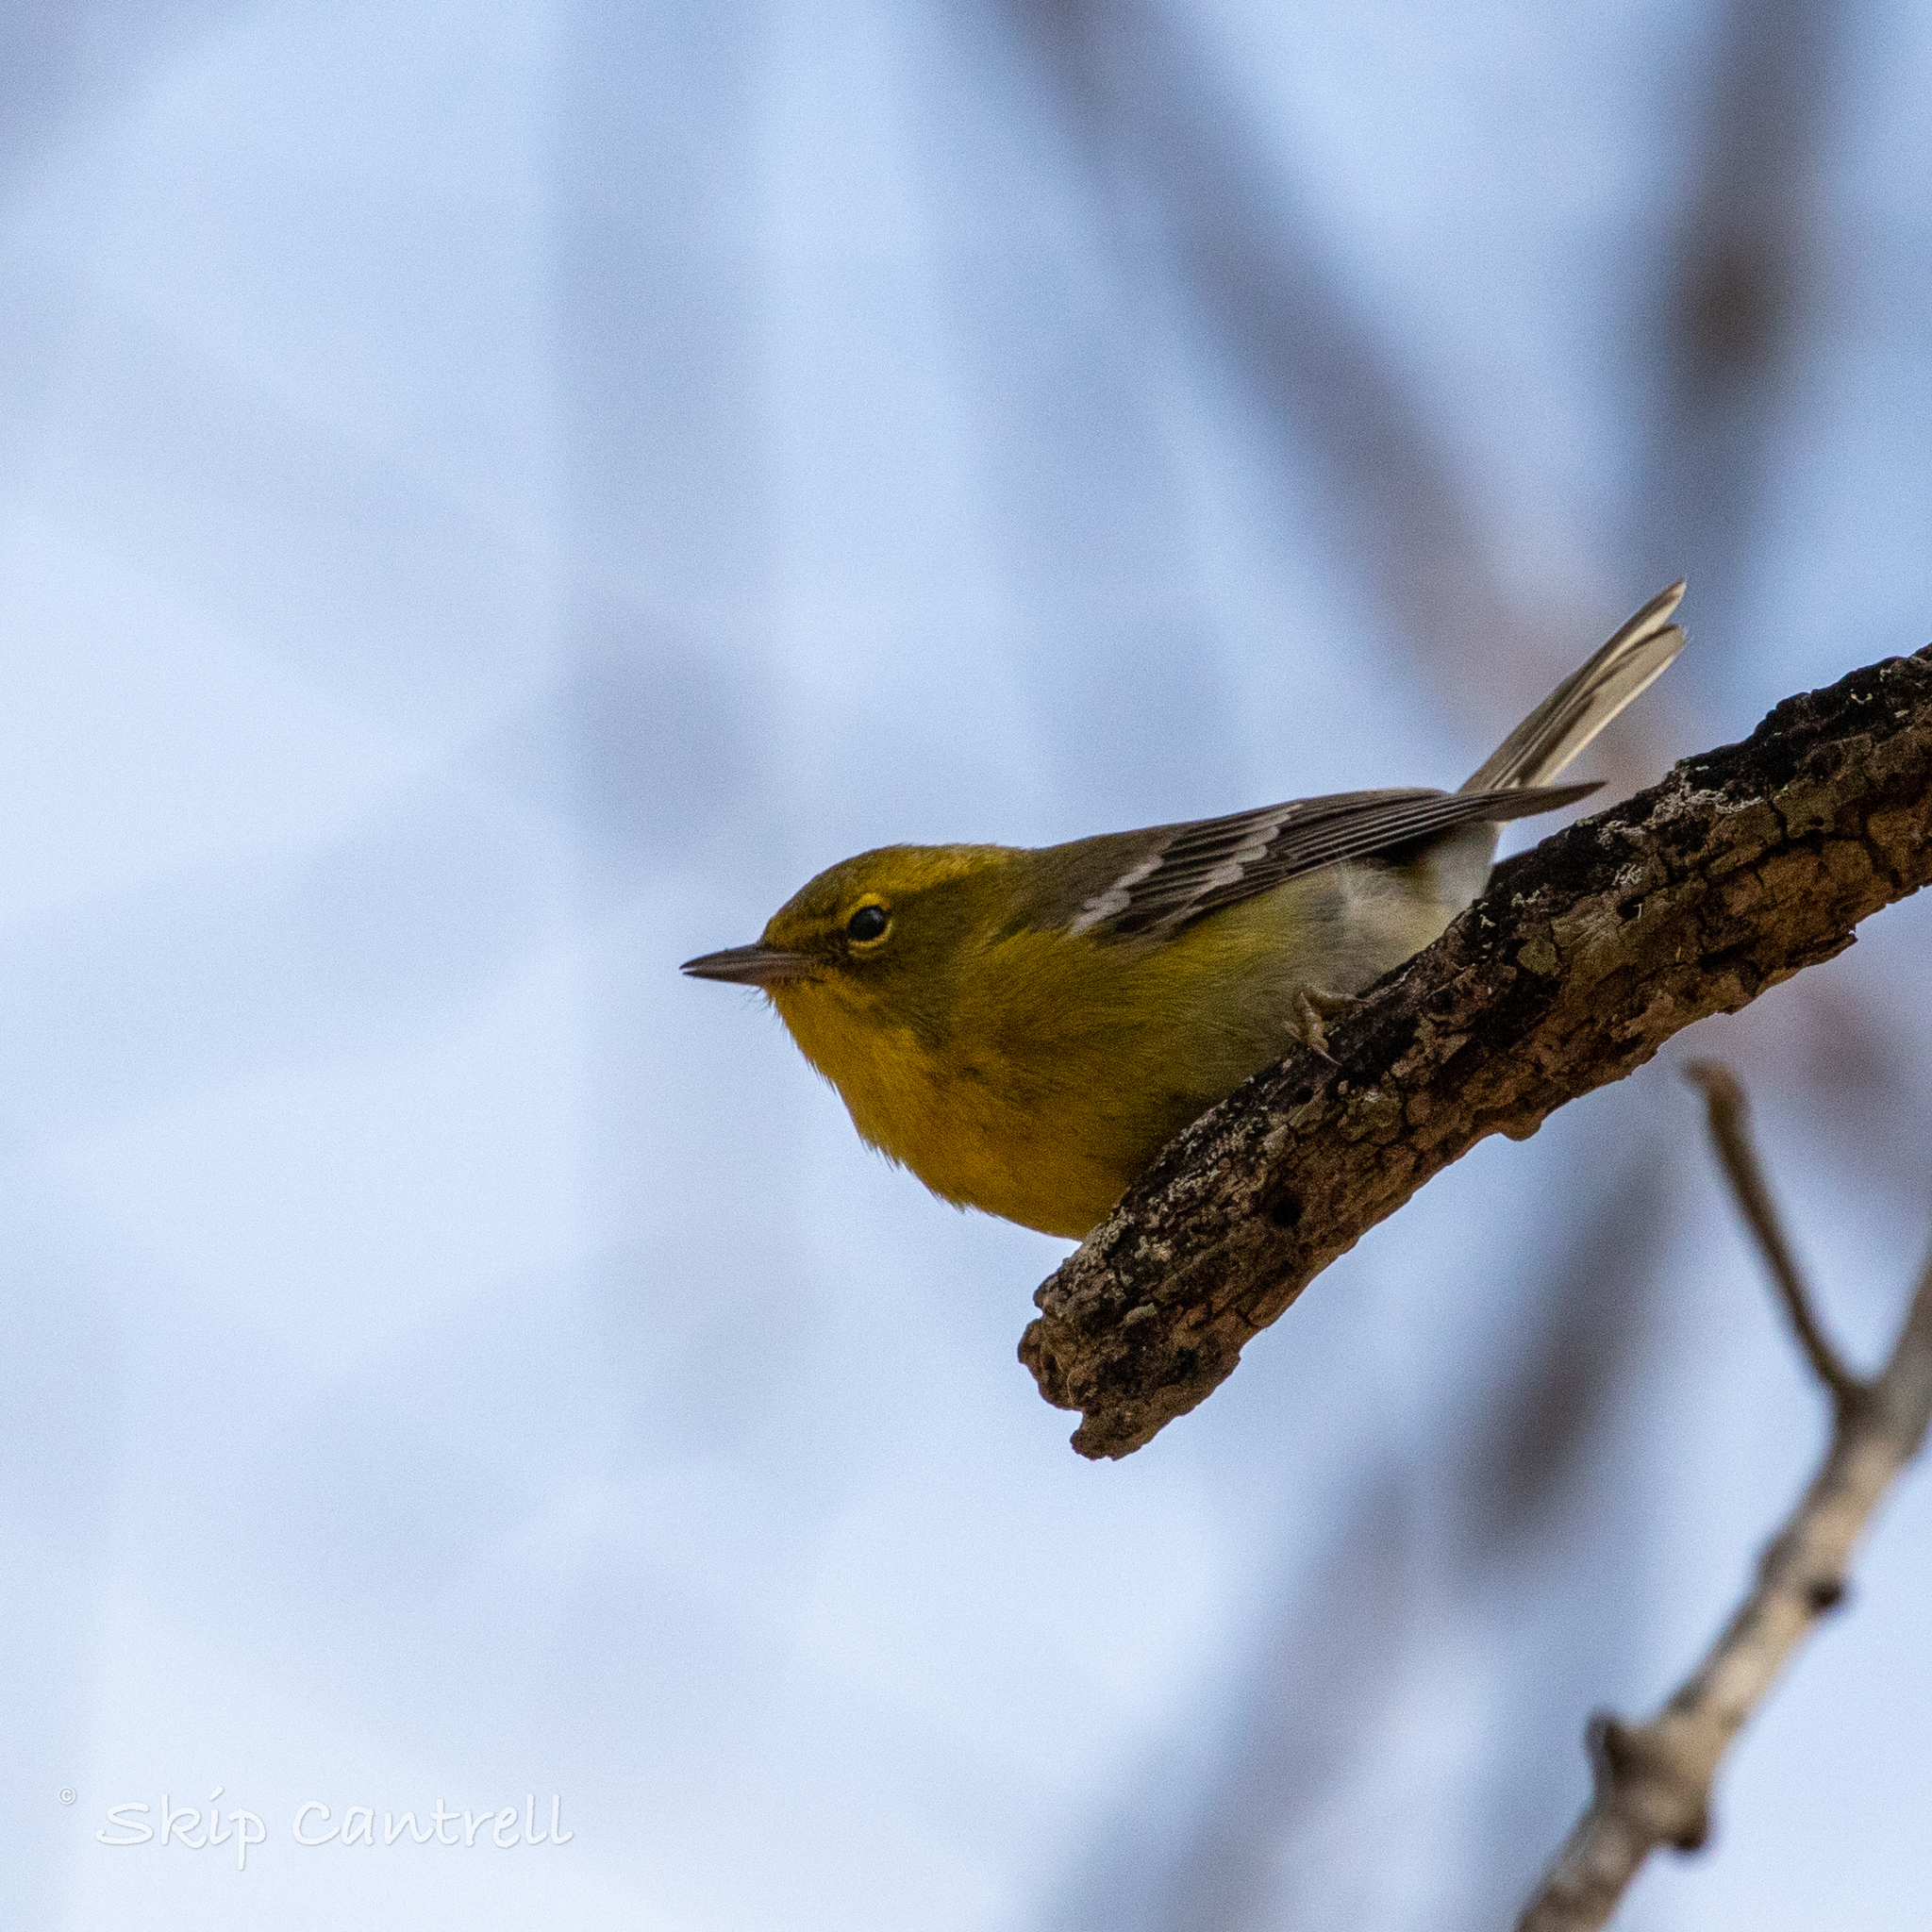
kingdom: Animalia
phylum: Chordata
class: Aves
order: Passeriformes
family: Parulidae
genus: Setophaga
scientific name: Setophaga pinus
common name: Pine warbler
